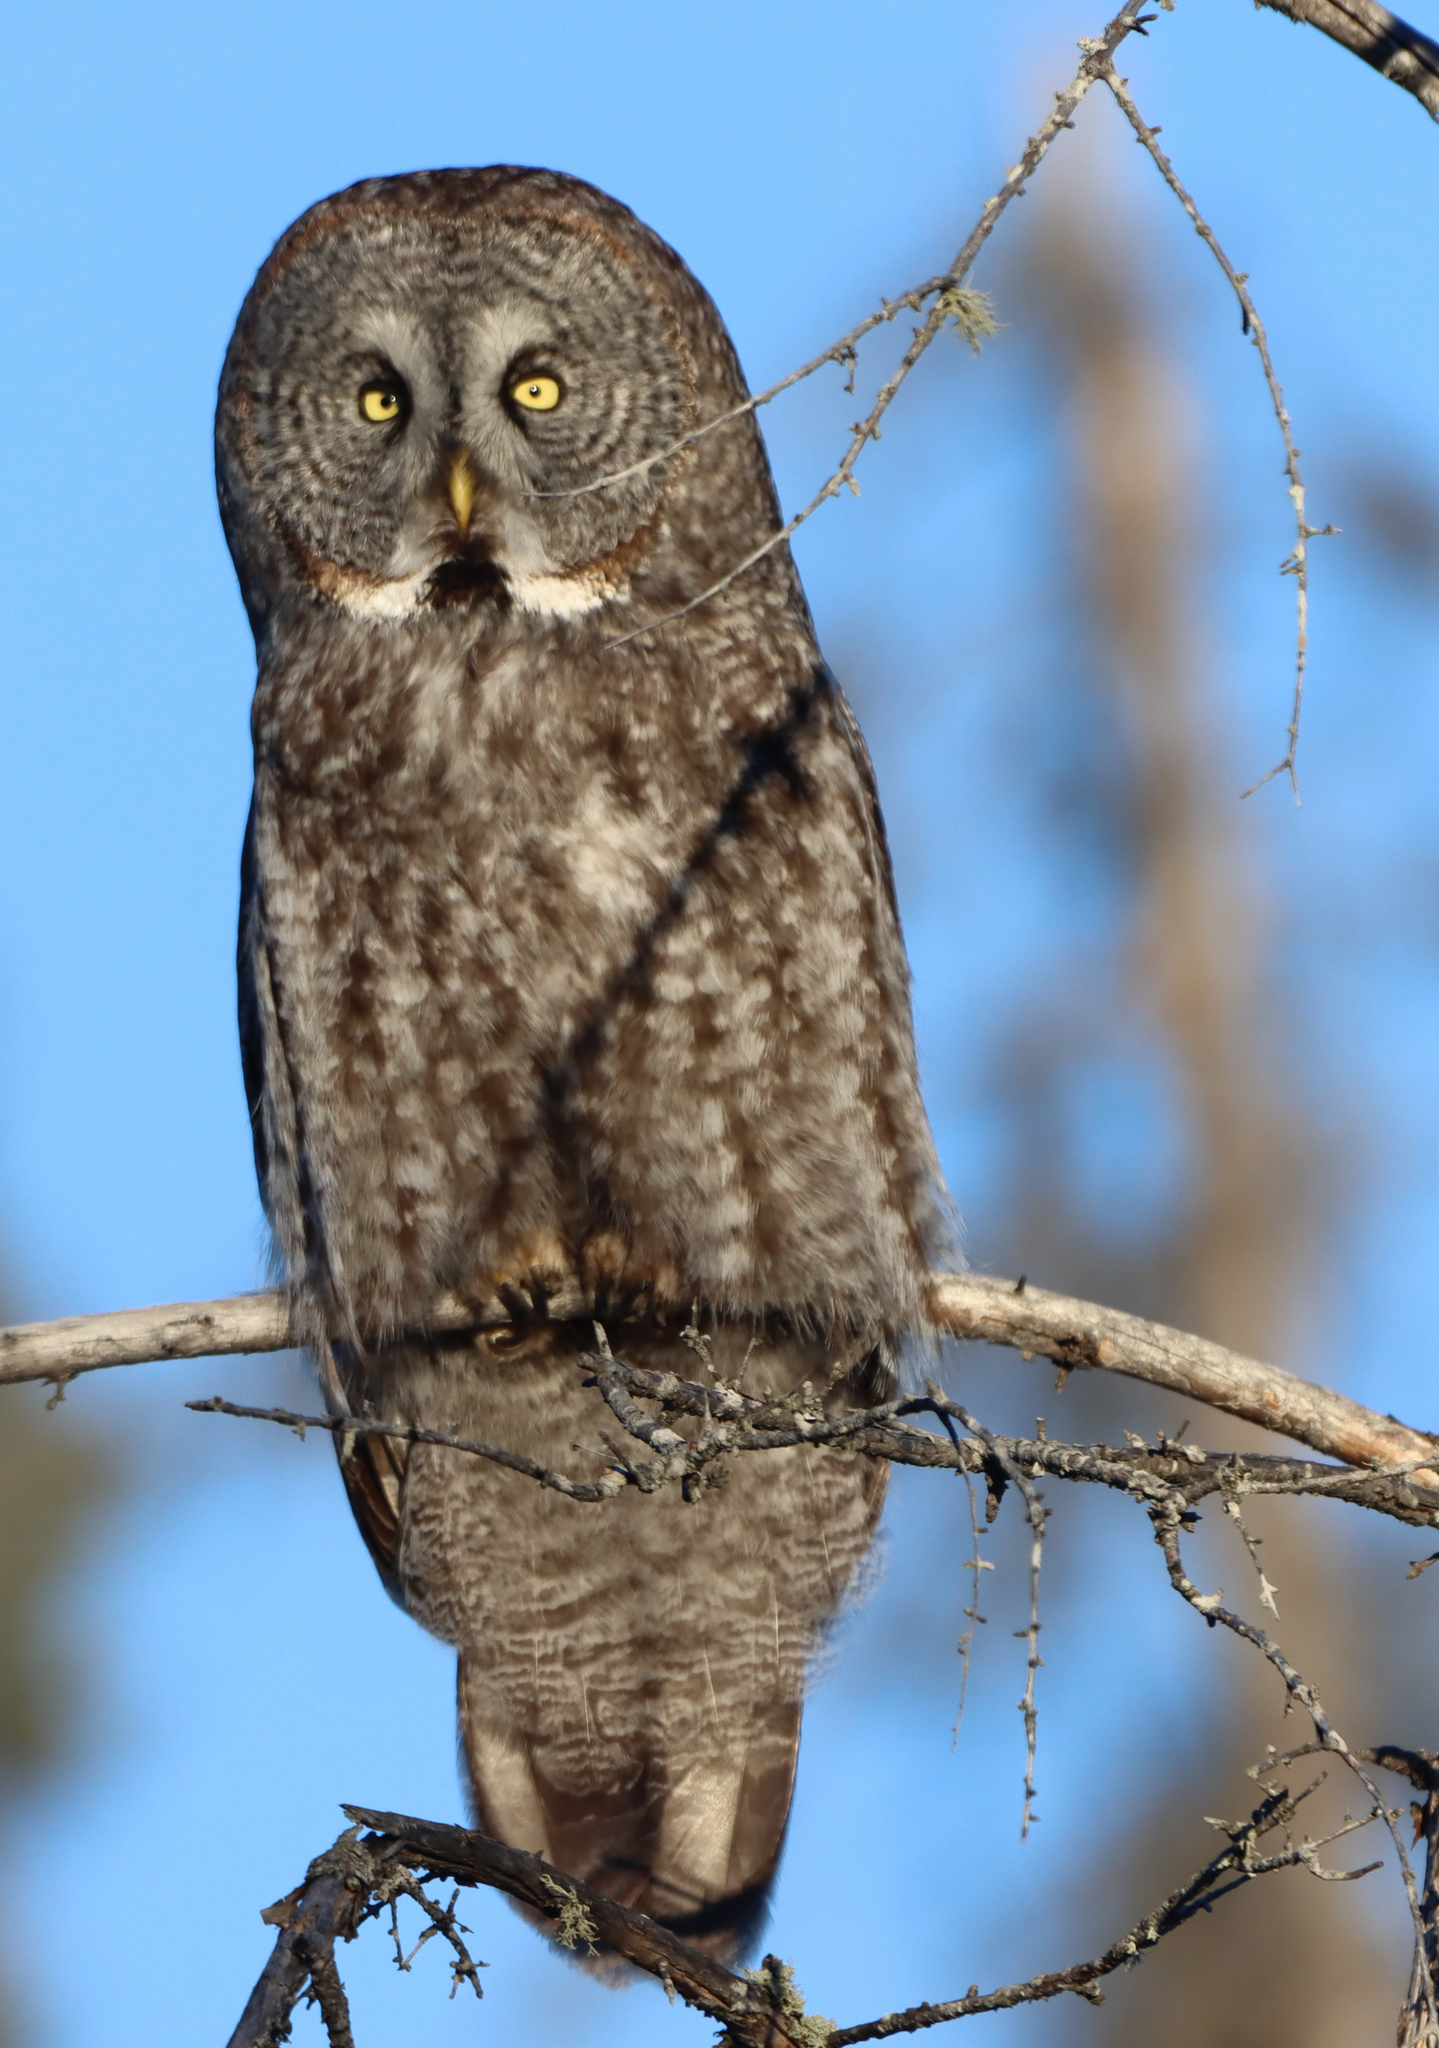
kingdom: Animalia
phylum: Chordata
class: Aves
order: Strigiformes
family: Strigidae
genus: Strix
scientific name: Strix nebulosa
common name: Great grey owl
